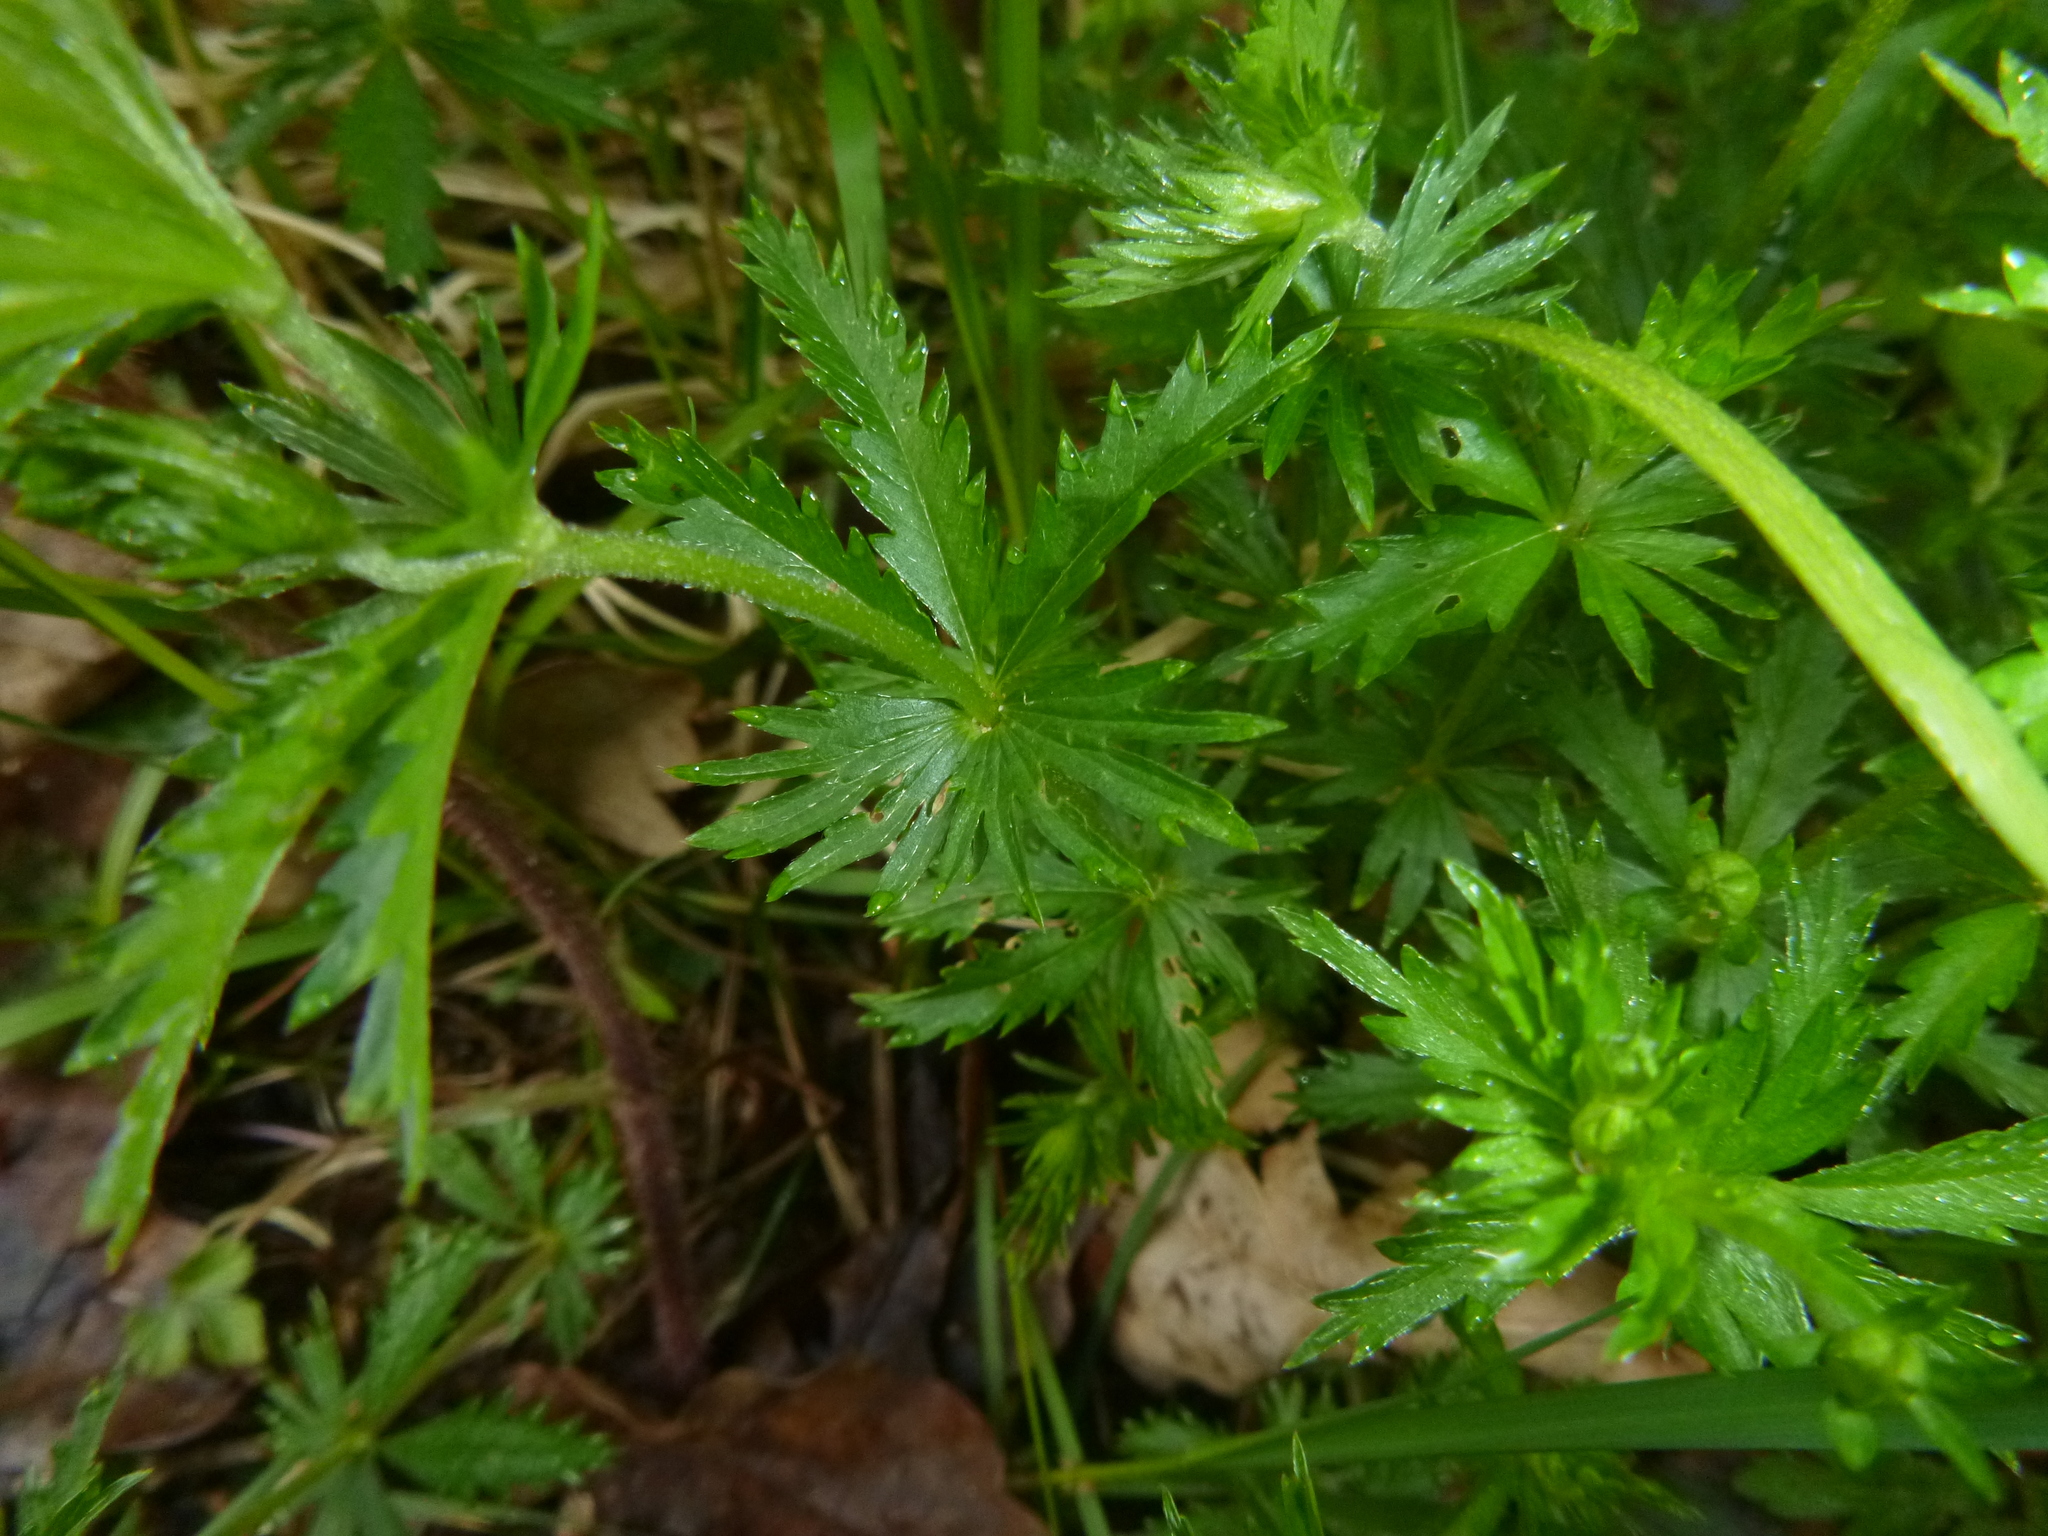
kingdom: Plantae
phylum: Tracheophyta
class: Magnoliopsida
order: Rosales
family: Rosaceae
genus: Potentilla
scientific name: Potentilla erecta
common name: Tormentil
